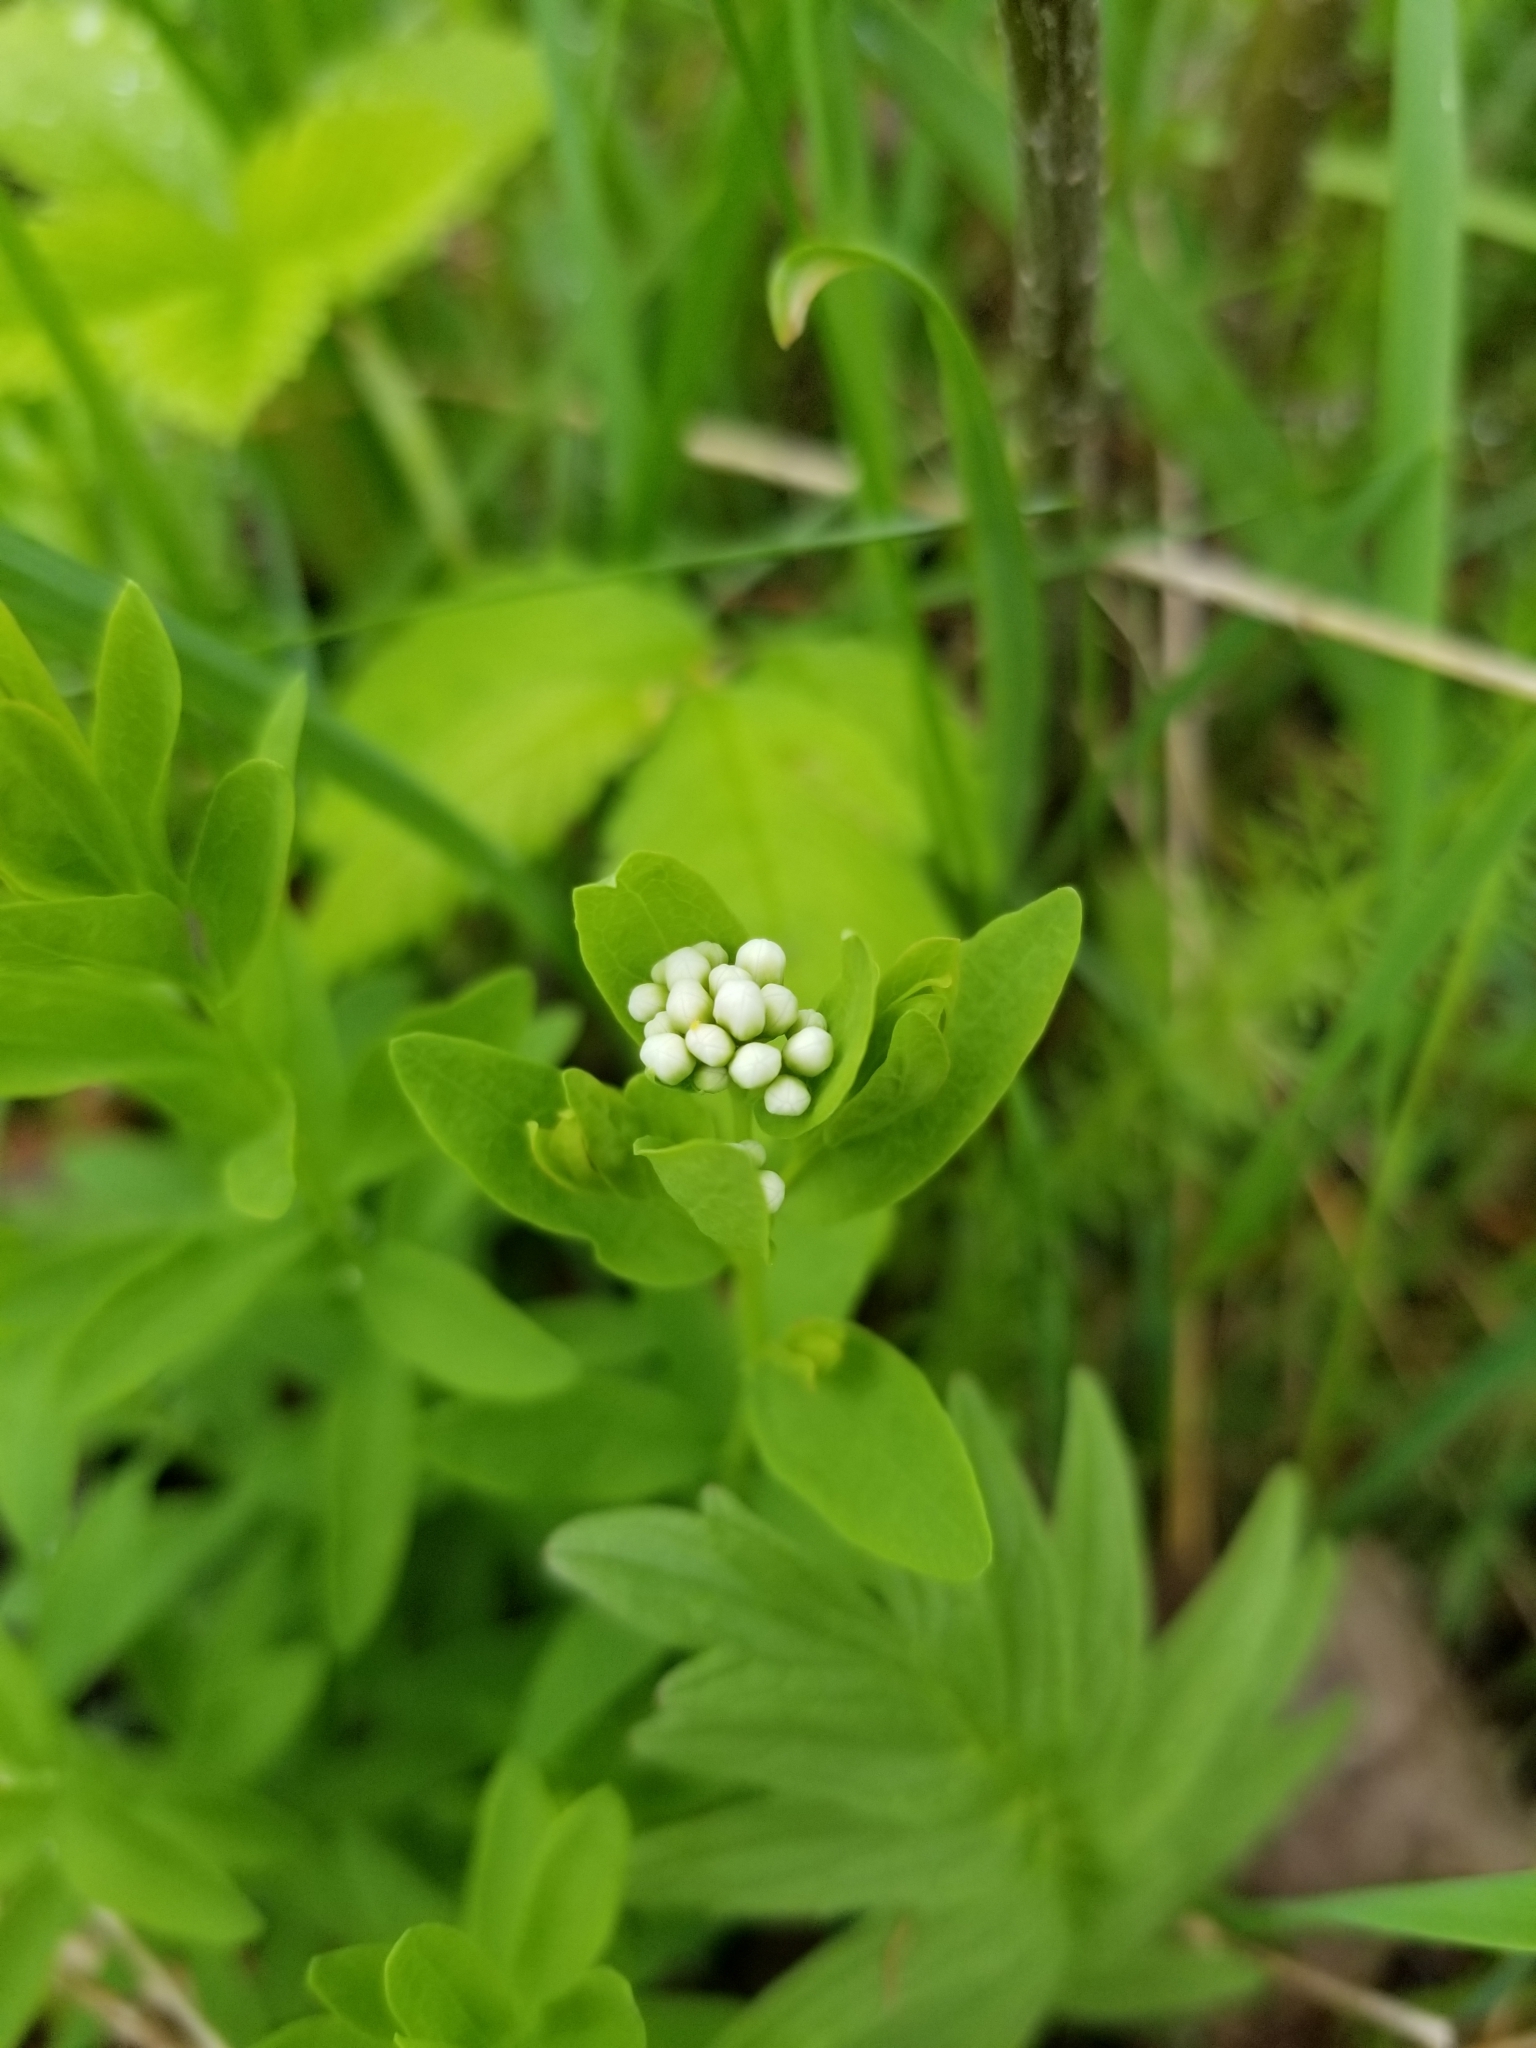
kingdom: Plantae
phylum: Tracheophyta
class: Magnoliopsida
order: Santalales
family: Comandraceae
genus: Comandra
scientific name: Comandra umbellata
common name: Bastard toadflax
